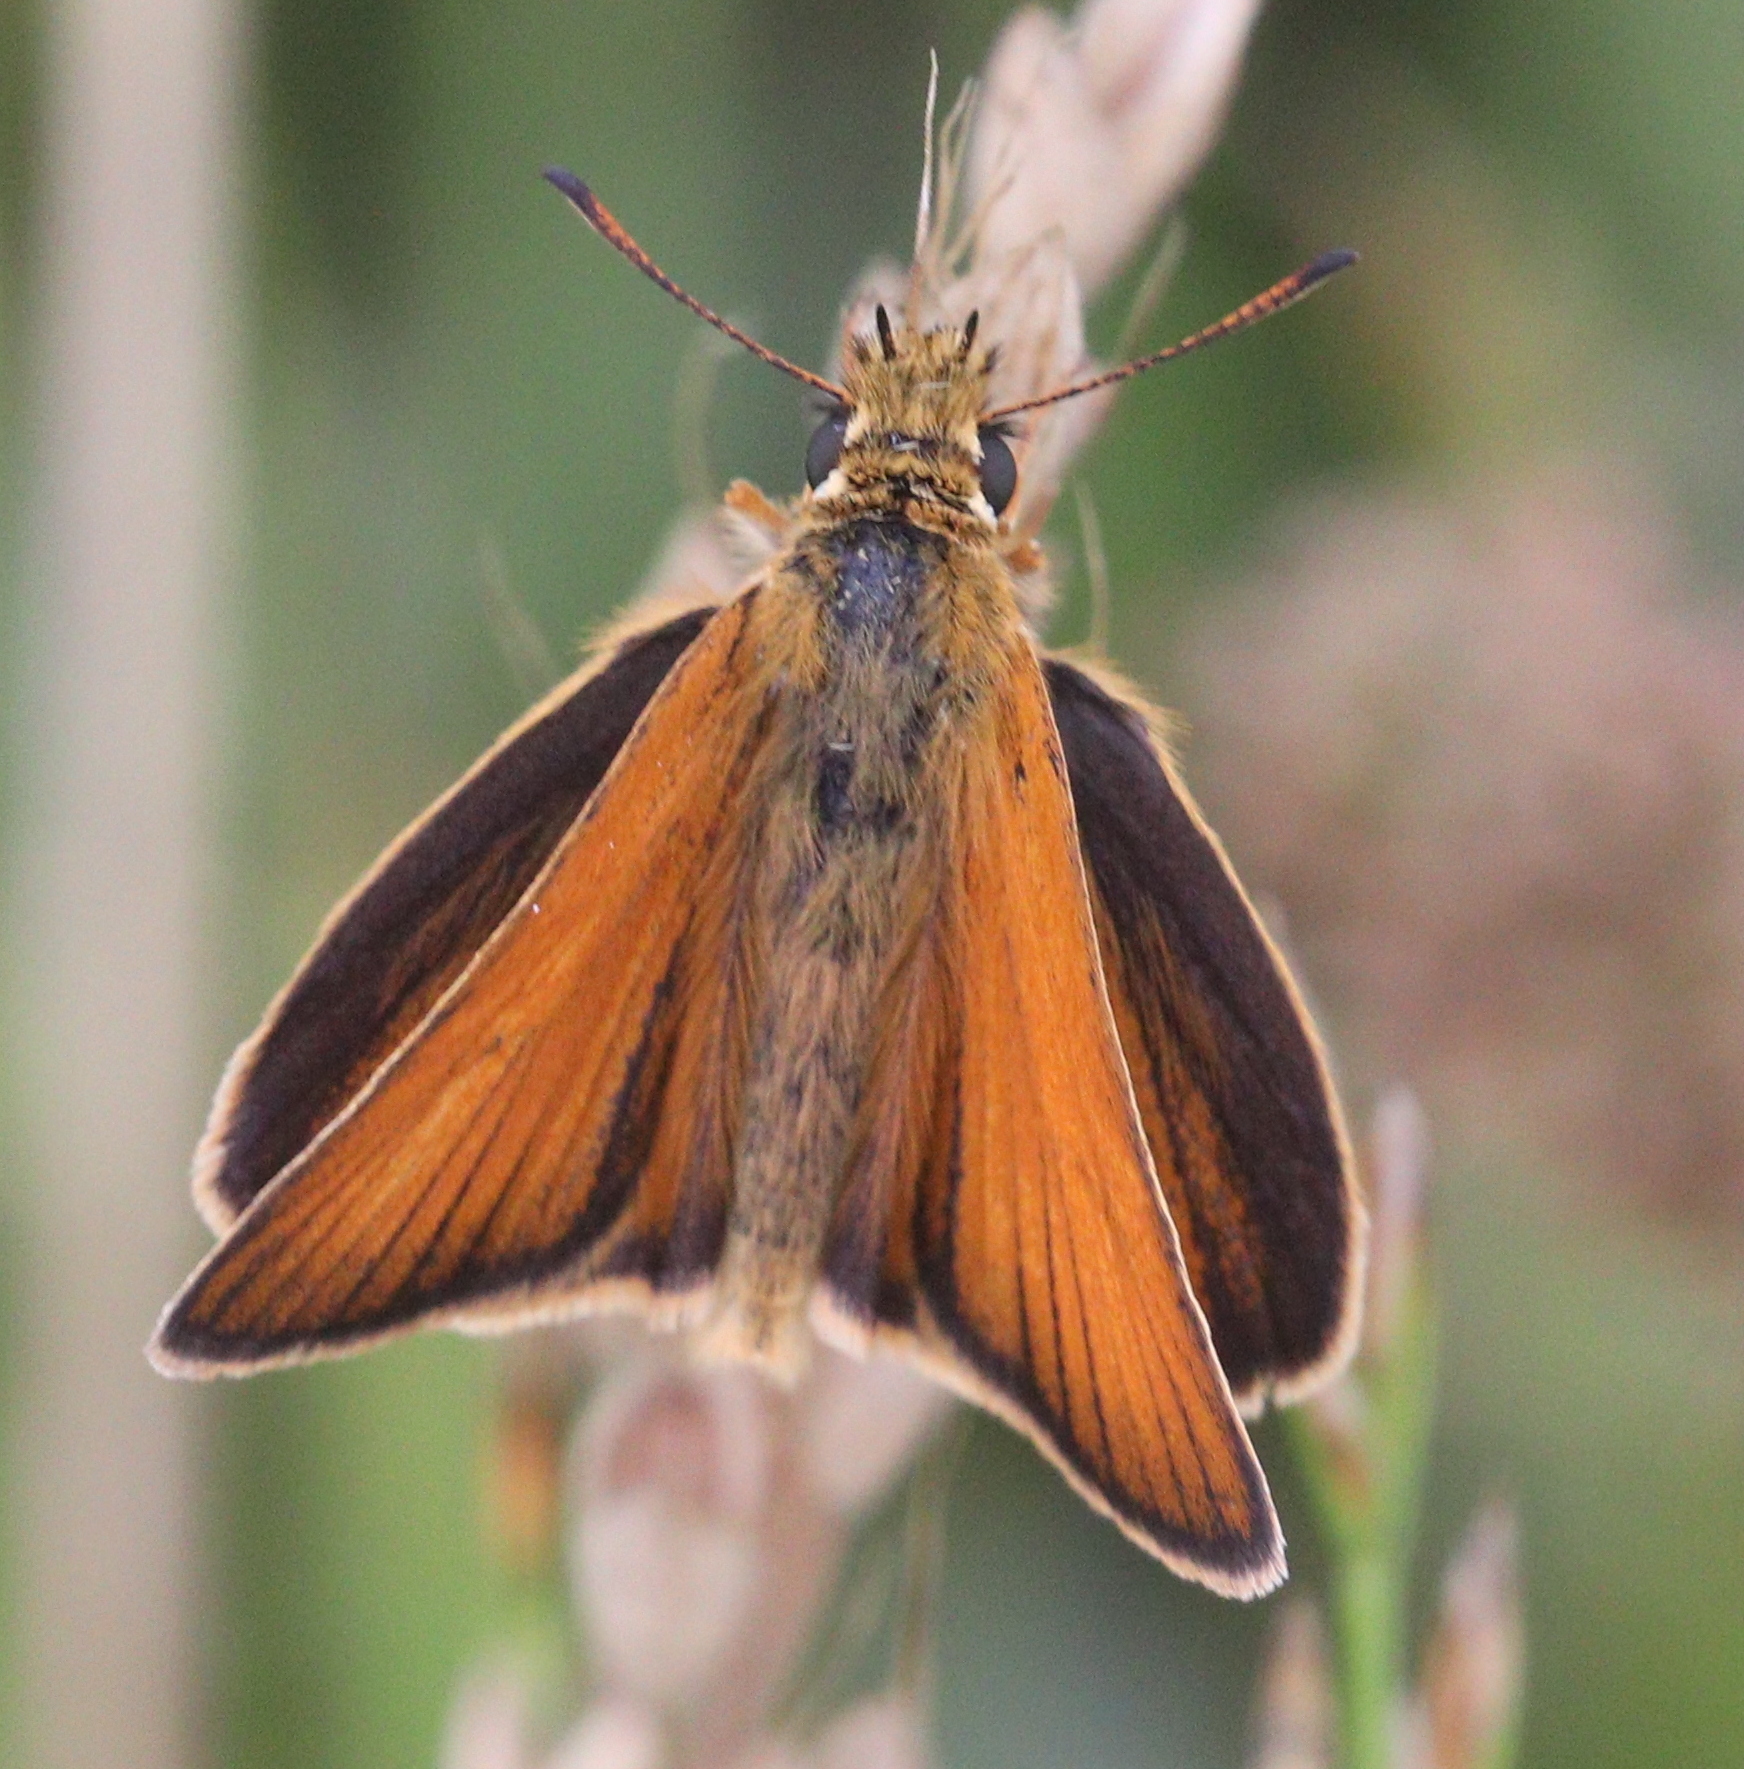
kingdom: Animalia
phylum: Arthropoda
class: Insecta
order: Lepidoptera
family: Hesperiidae
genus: Thymelicus
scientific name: Thymelicus lineola
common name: Essex skipper
